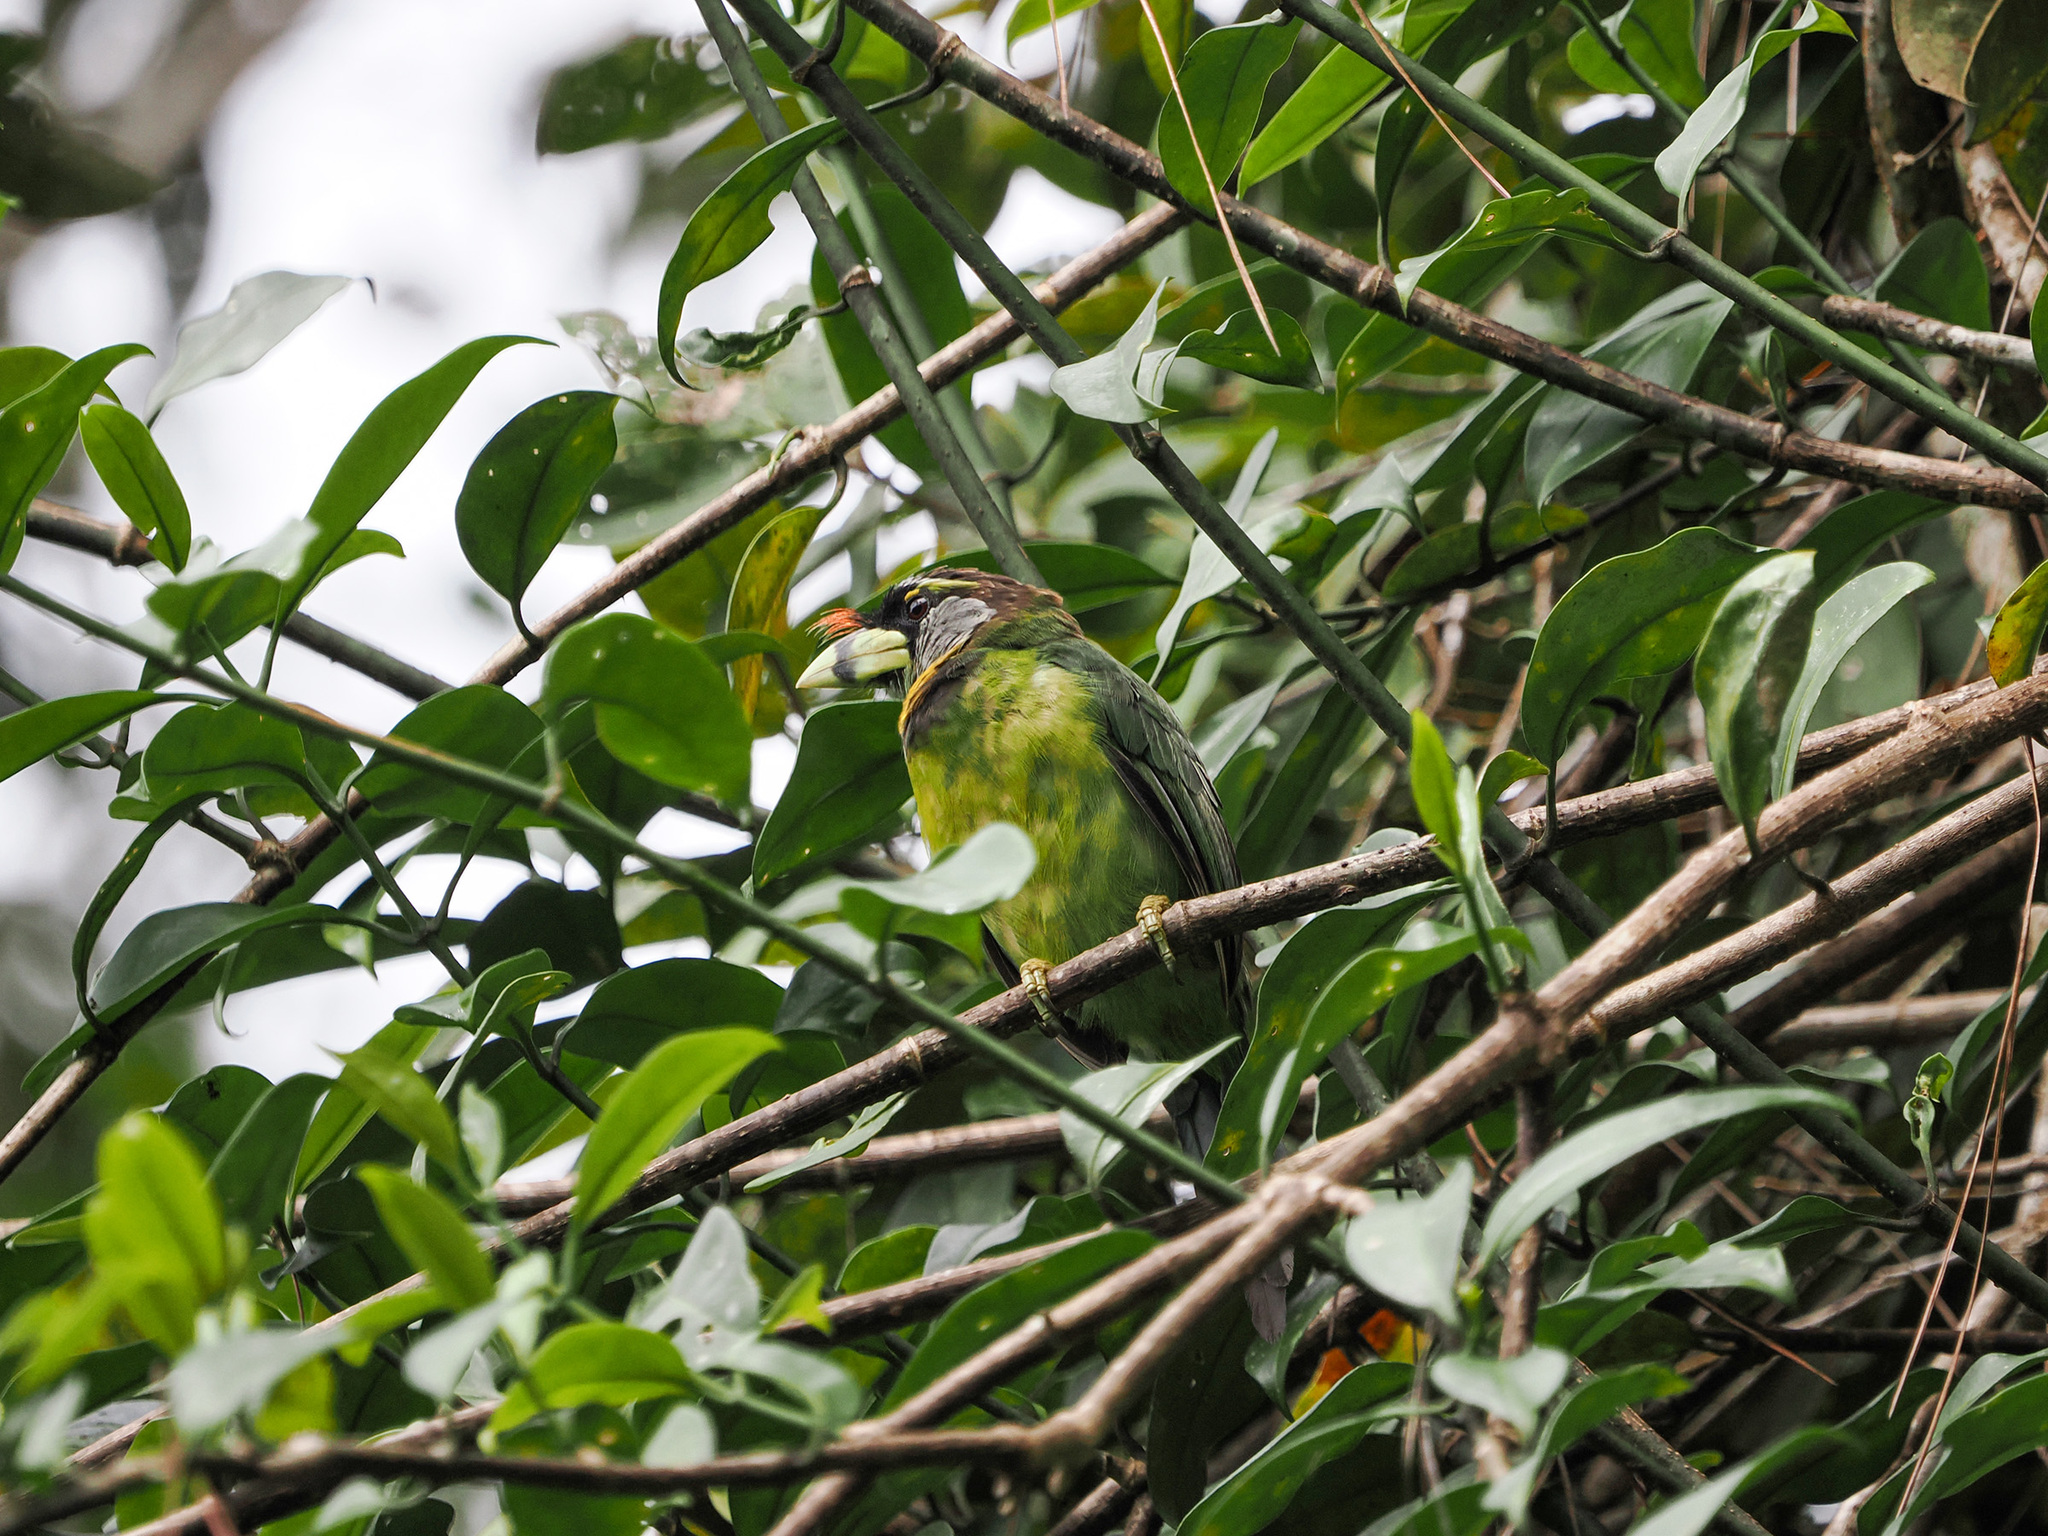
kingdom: Animalia
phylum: Chordata
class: Aves
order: Piciformes
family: Megalaimidae
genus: Psilopogon
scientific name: Psilopogon pyrolophus
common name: Fire-tufted barbet
